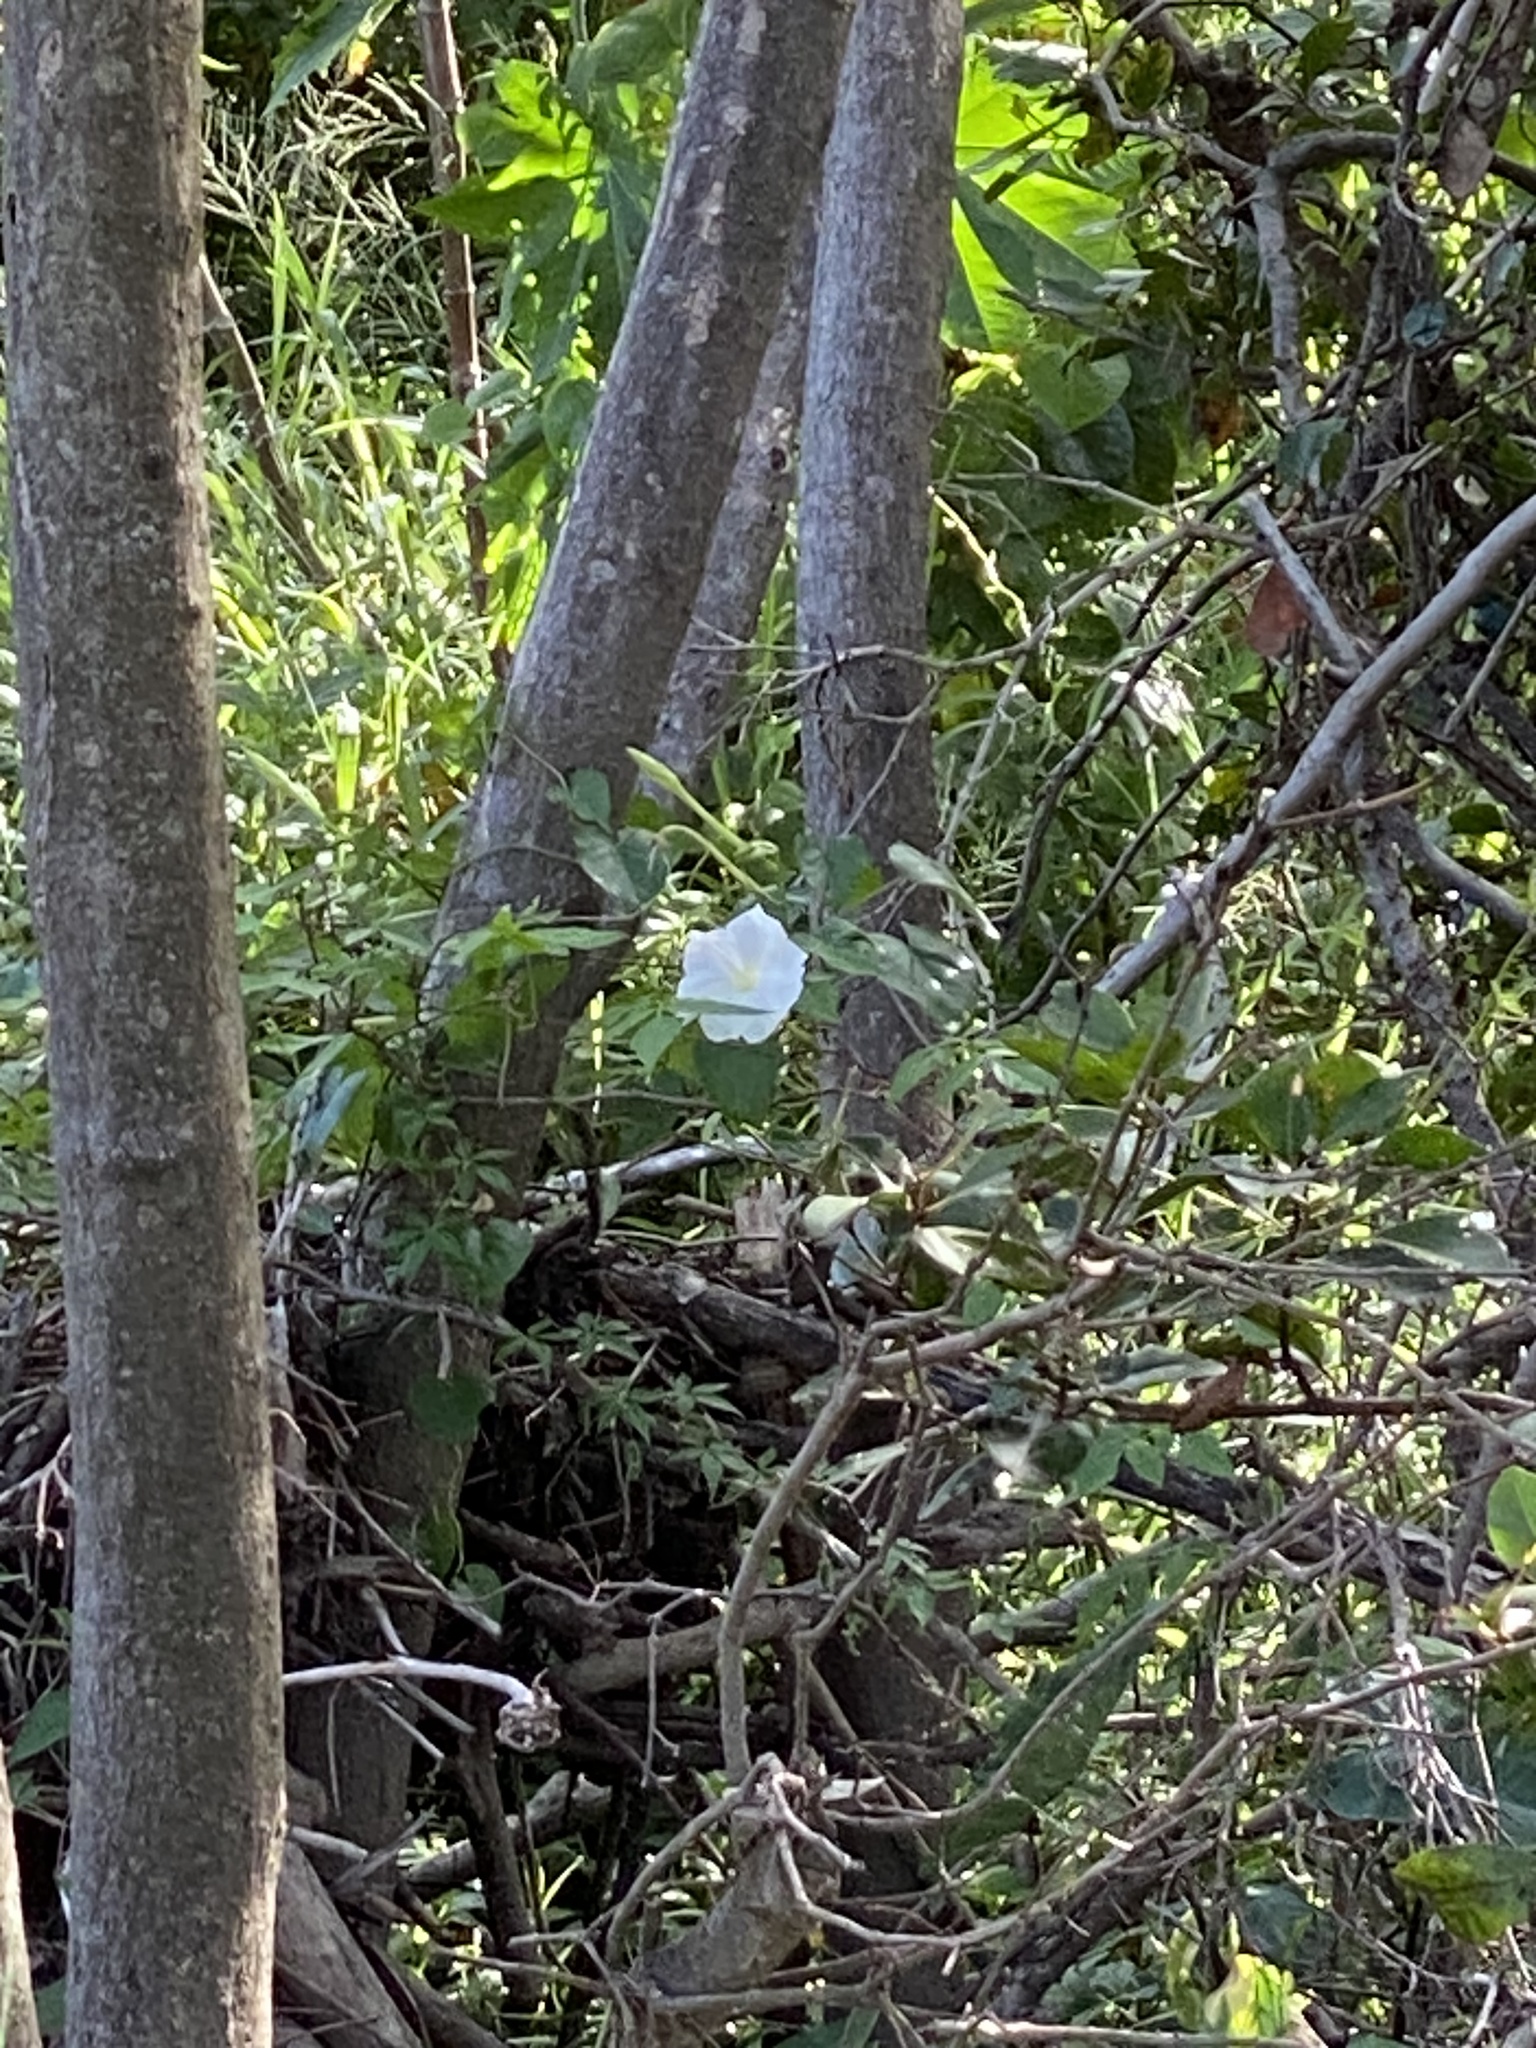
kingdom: Plantae
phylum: Tracheophyta
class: Magnoliopsida
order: Solanales
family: Convolvulaceae
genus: Ipomoea
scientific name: Ipomoea alba
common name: Moonflower
